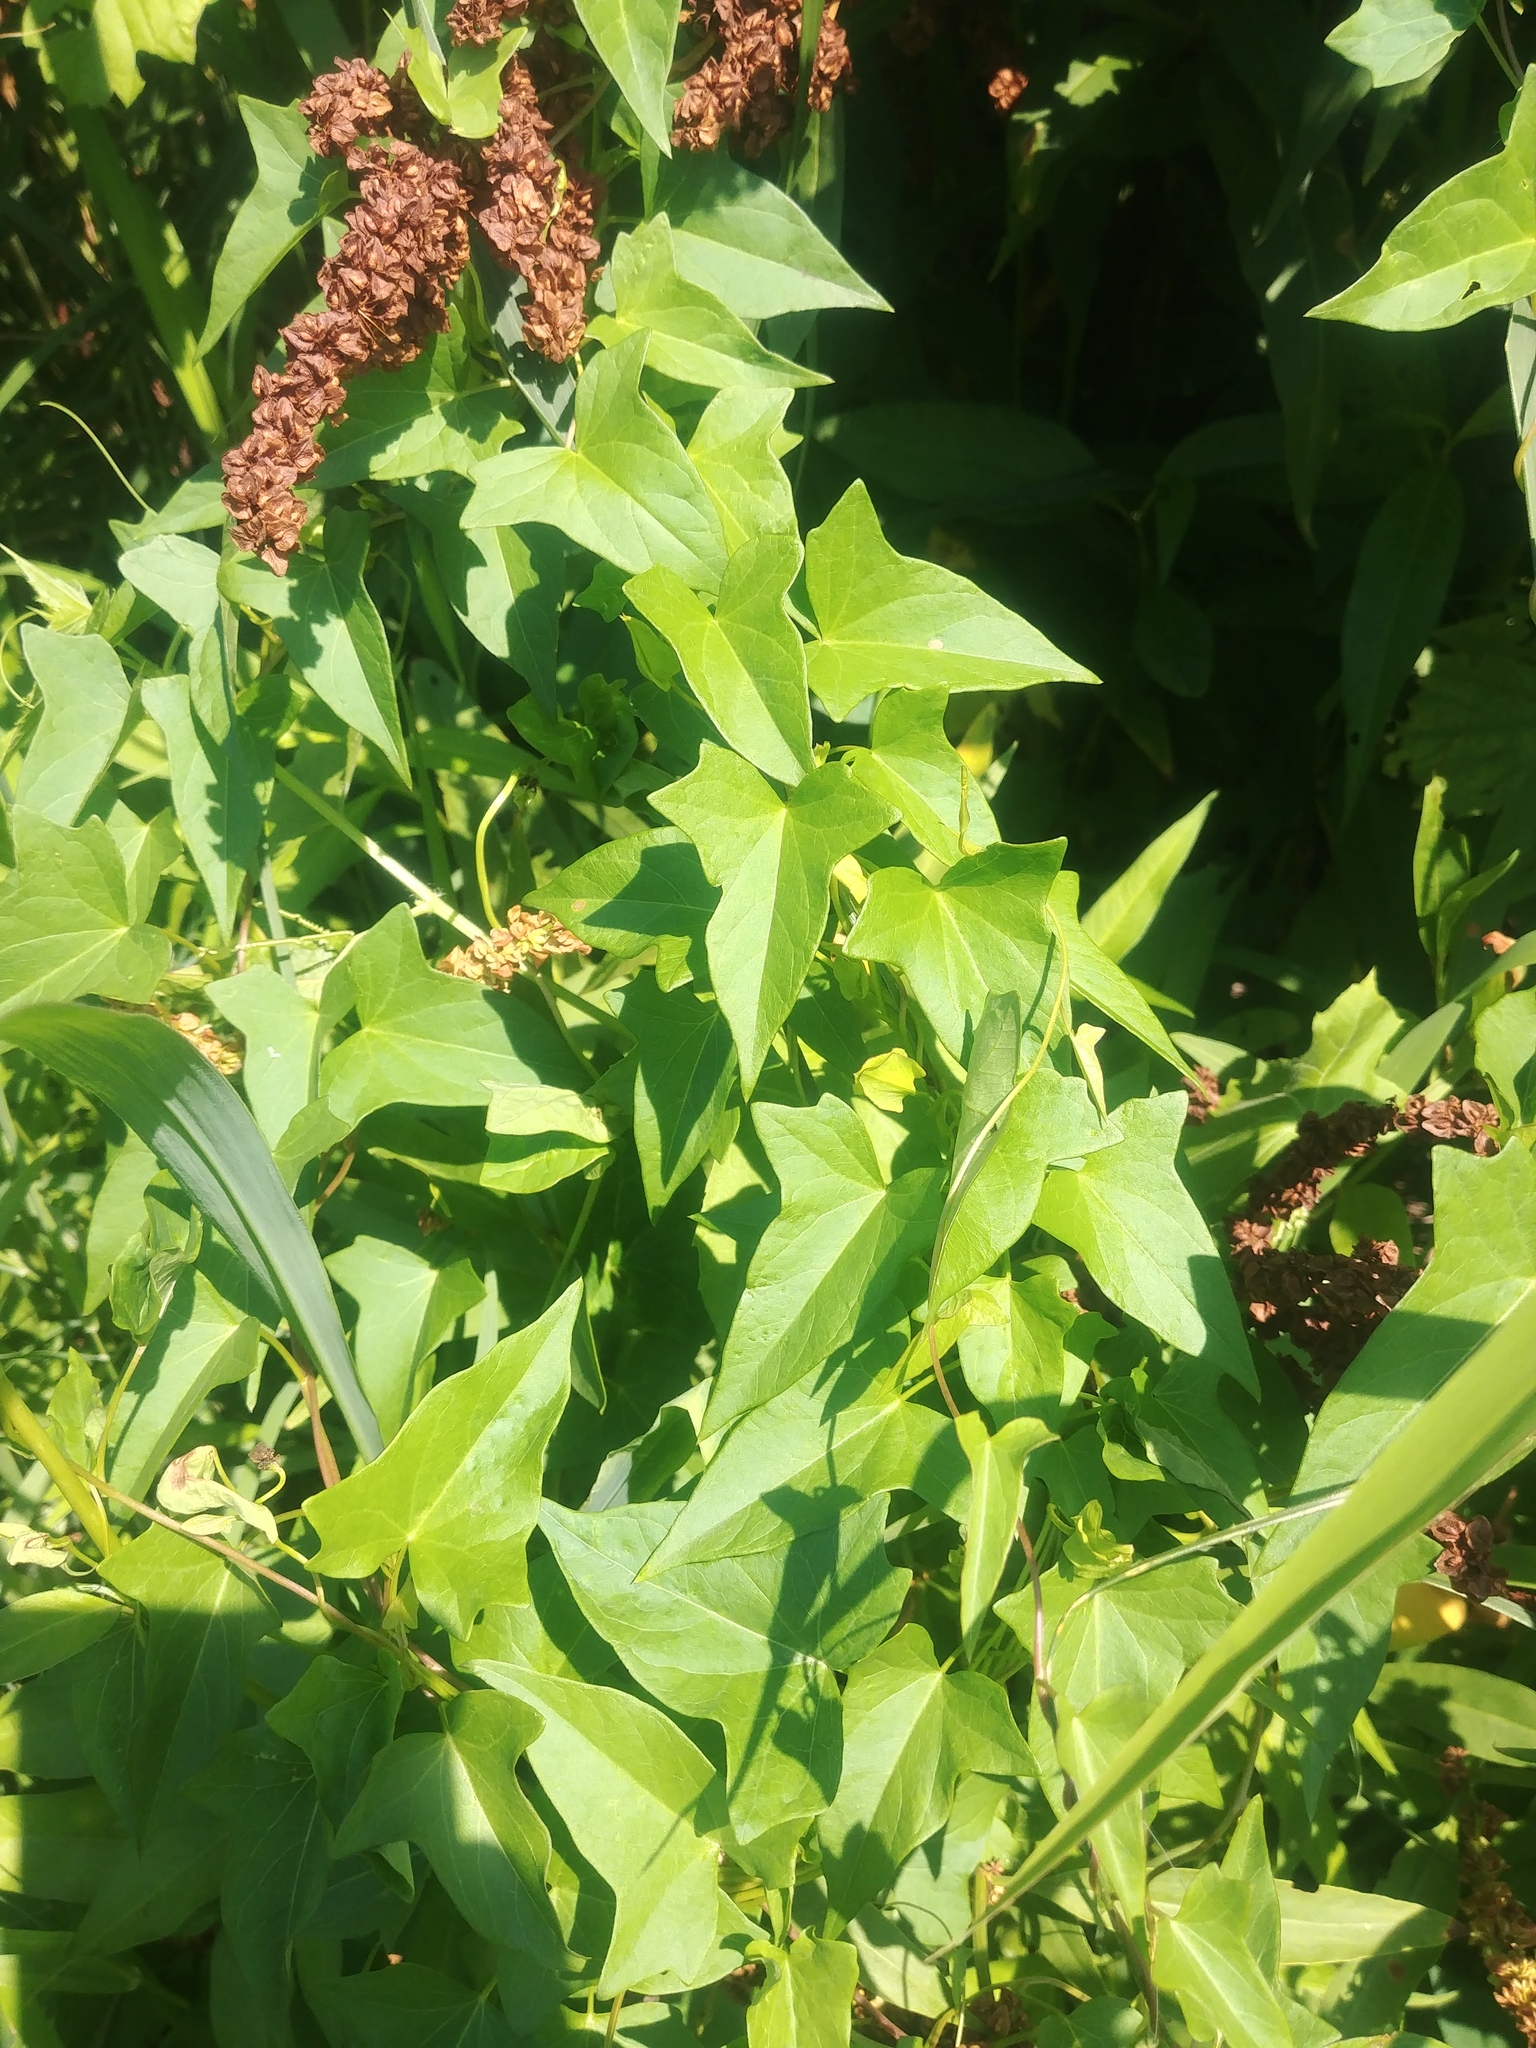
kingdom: Plantae
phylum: Tracheophyta
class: Magnoliopsida
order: Solanales
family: Convolvulaceae
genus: Calystegia
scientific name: Calystegia sepium
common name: Hedge bindweed
